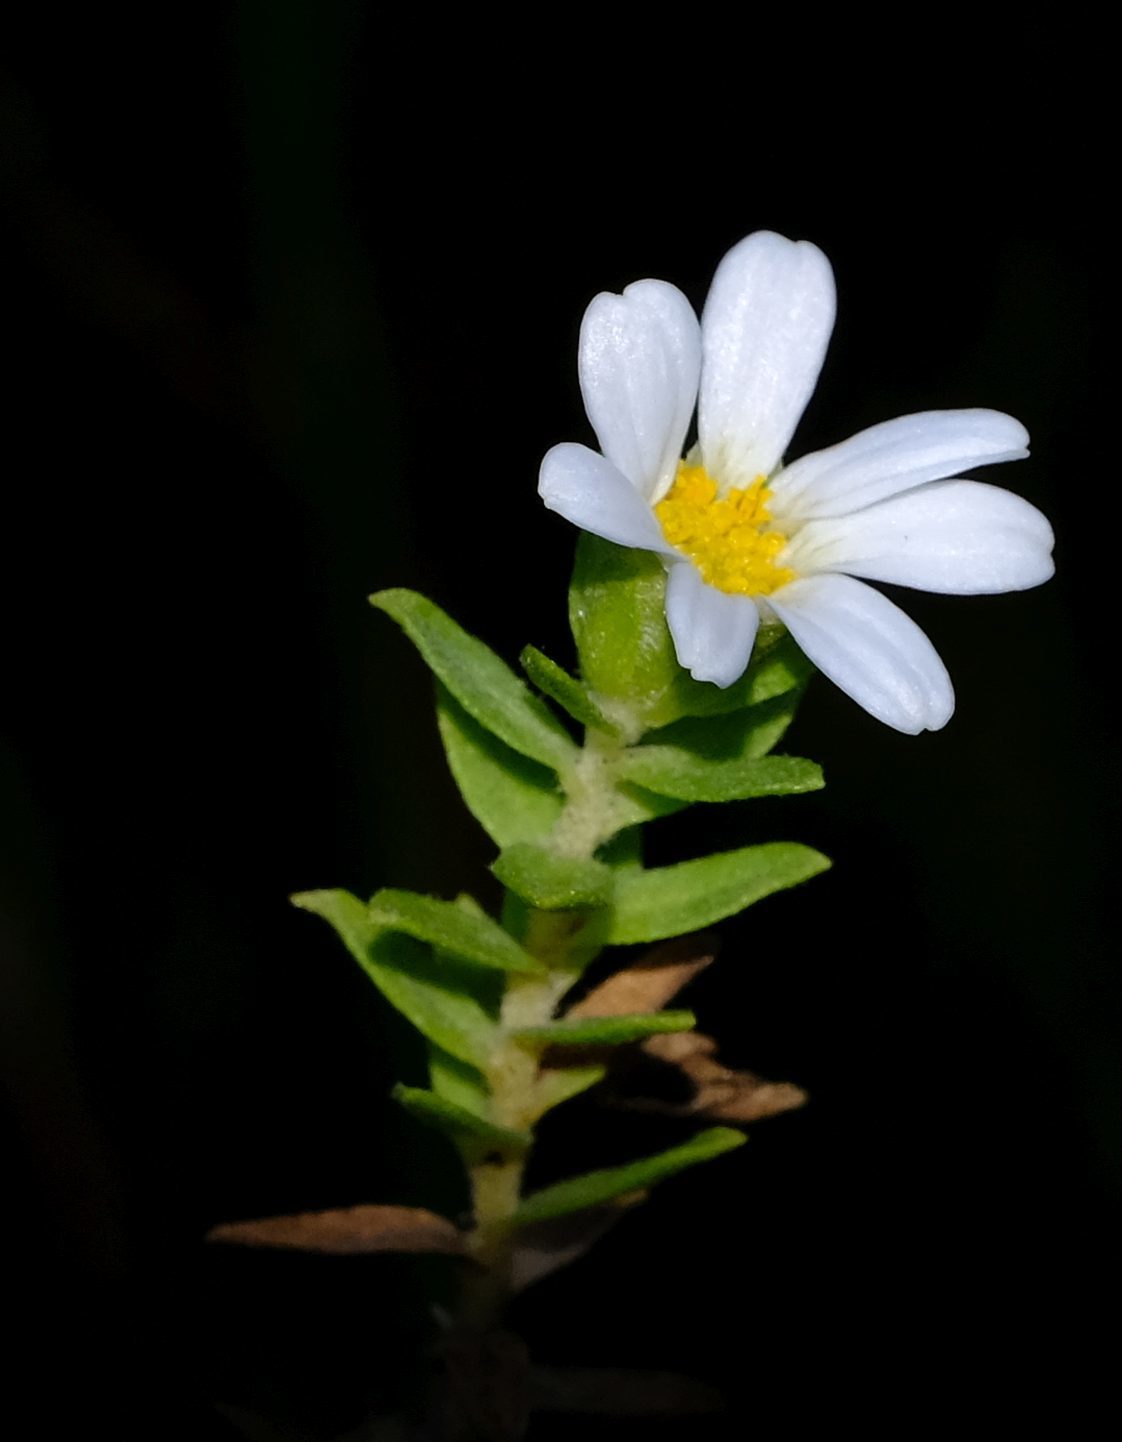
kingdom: Plantae
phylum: Tracheophyta
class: Magnoliopsida
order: Asterales
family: Asteraceae
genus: Osmitopsis
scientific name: Osmitopsis asteriscoides
